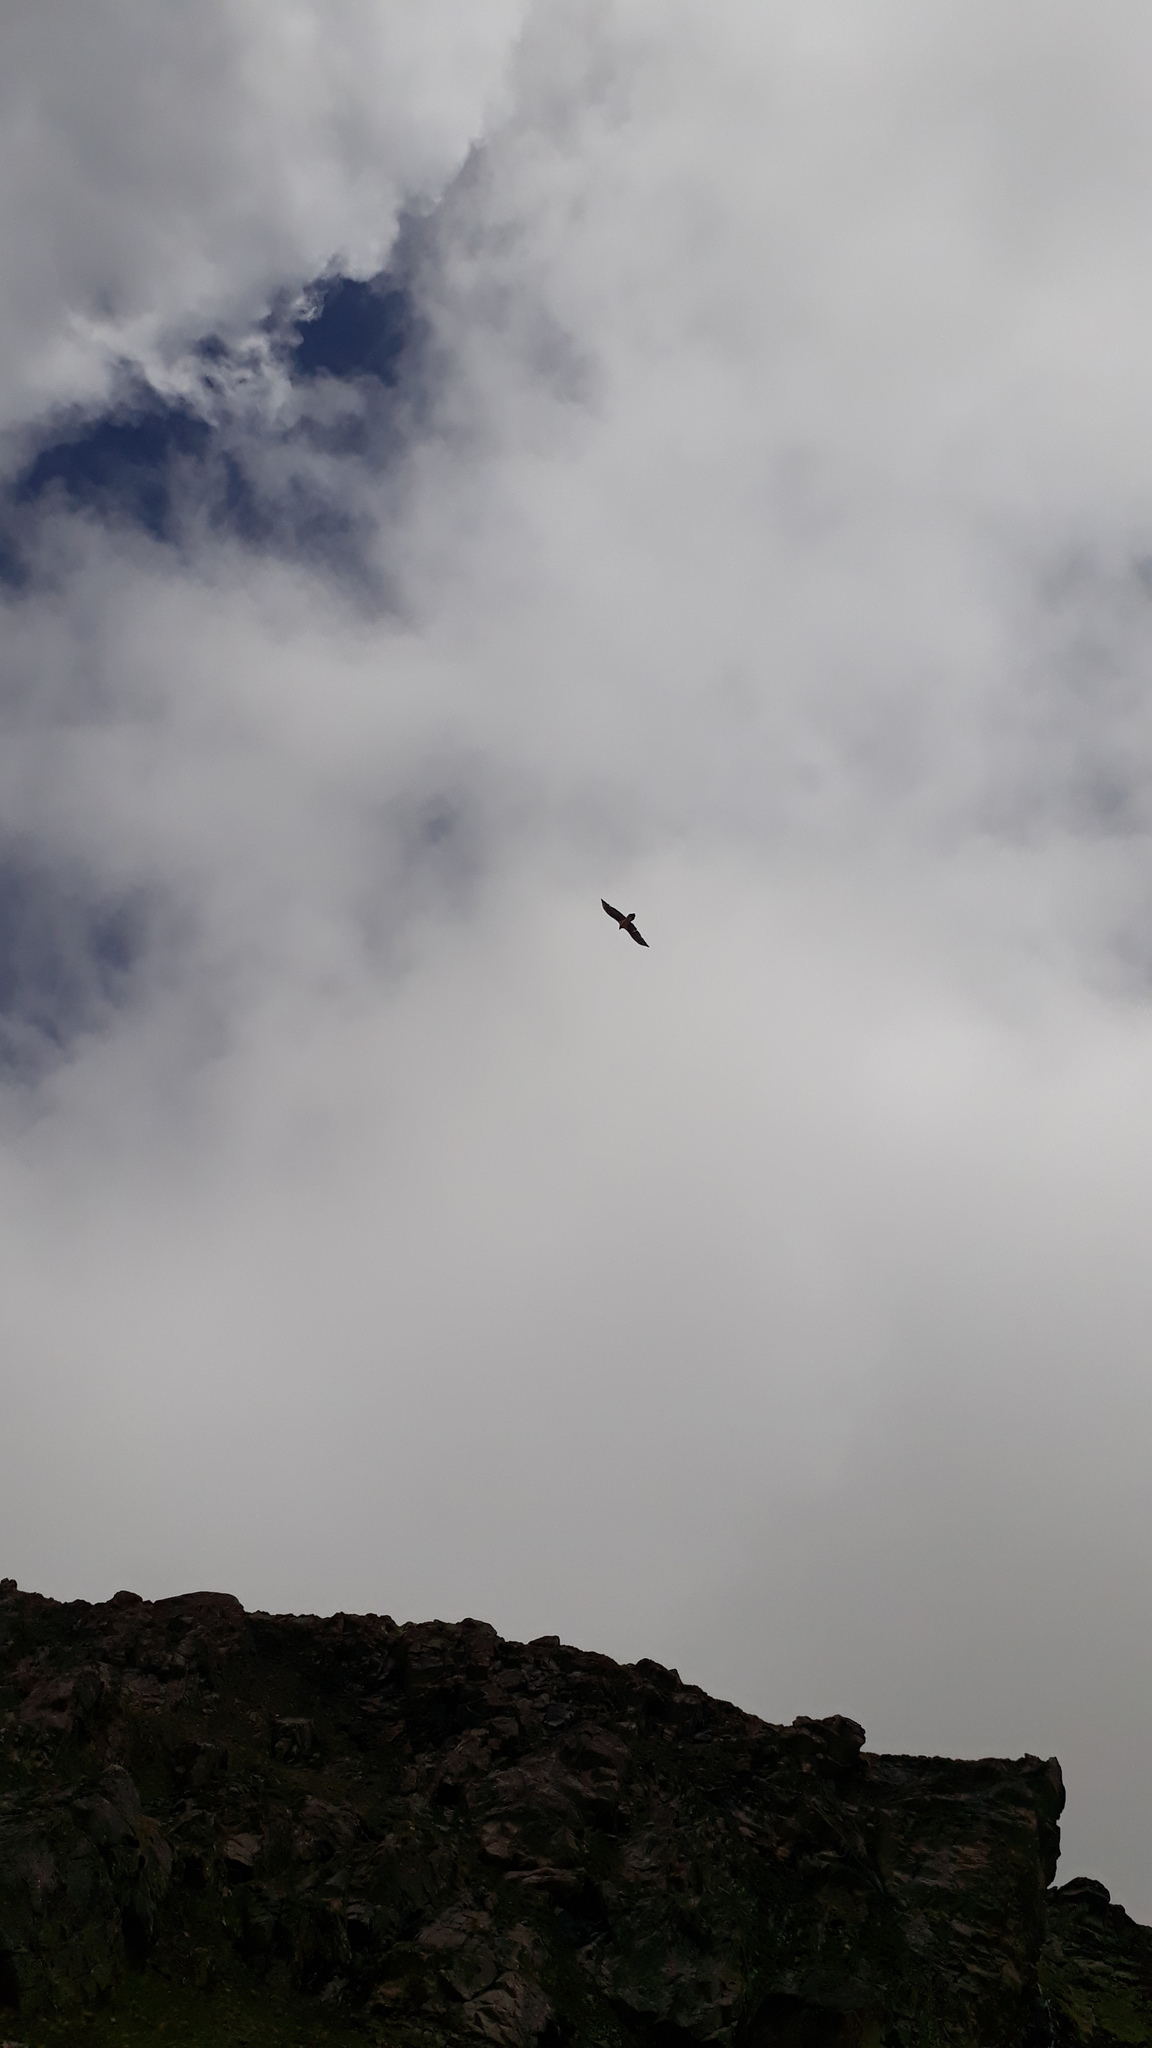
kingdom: Animalia
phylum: Chordata
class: Aves
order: Accipitriformes
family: Accipitridae
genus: Gypaetus
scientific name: Gypaetus barbatus
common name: Bearded vulture
